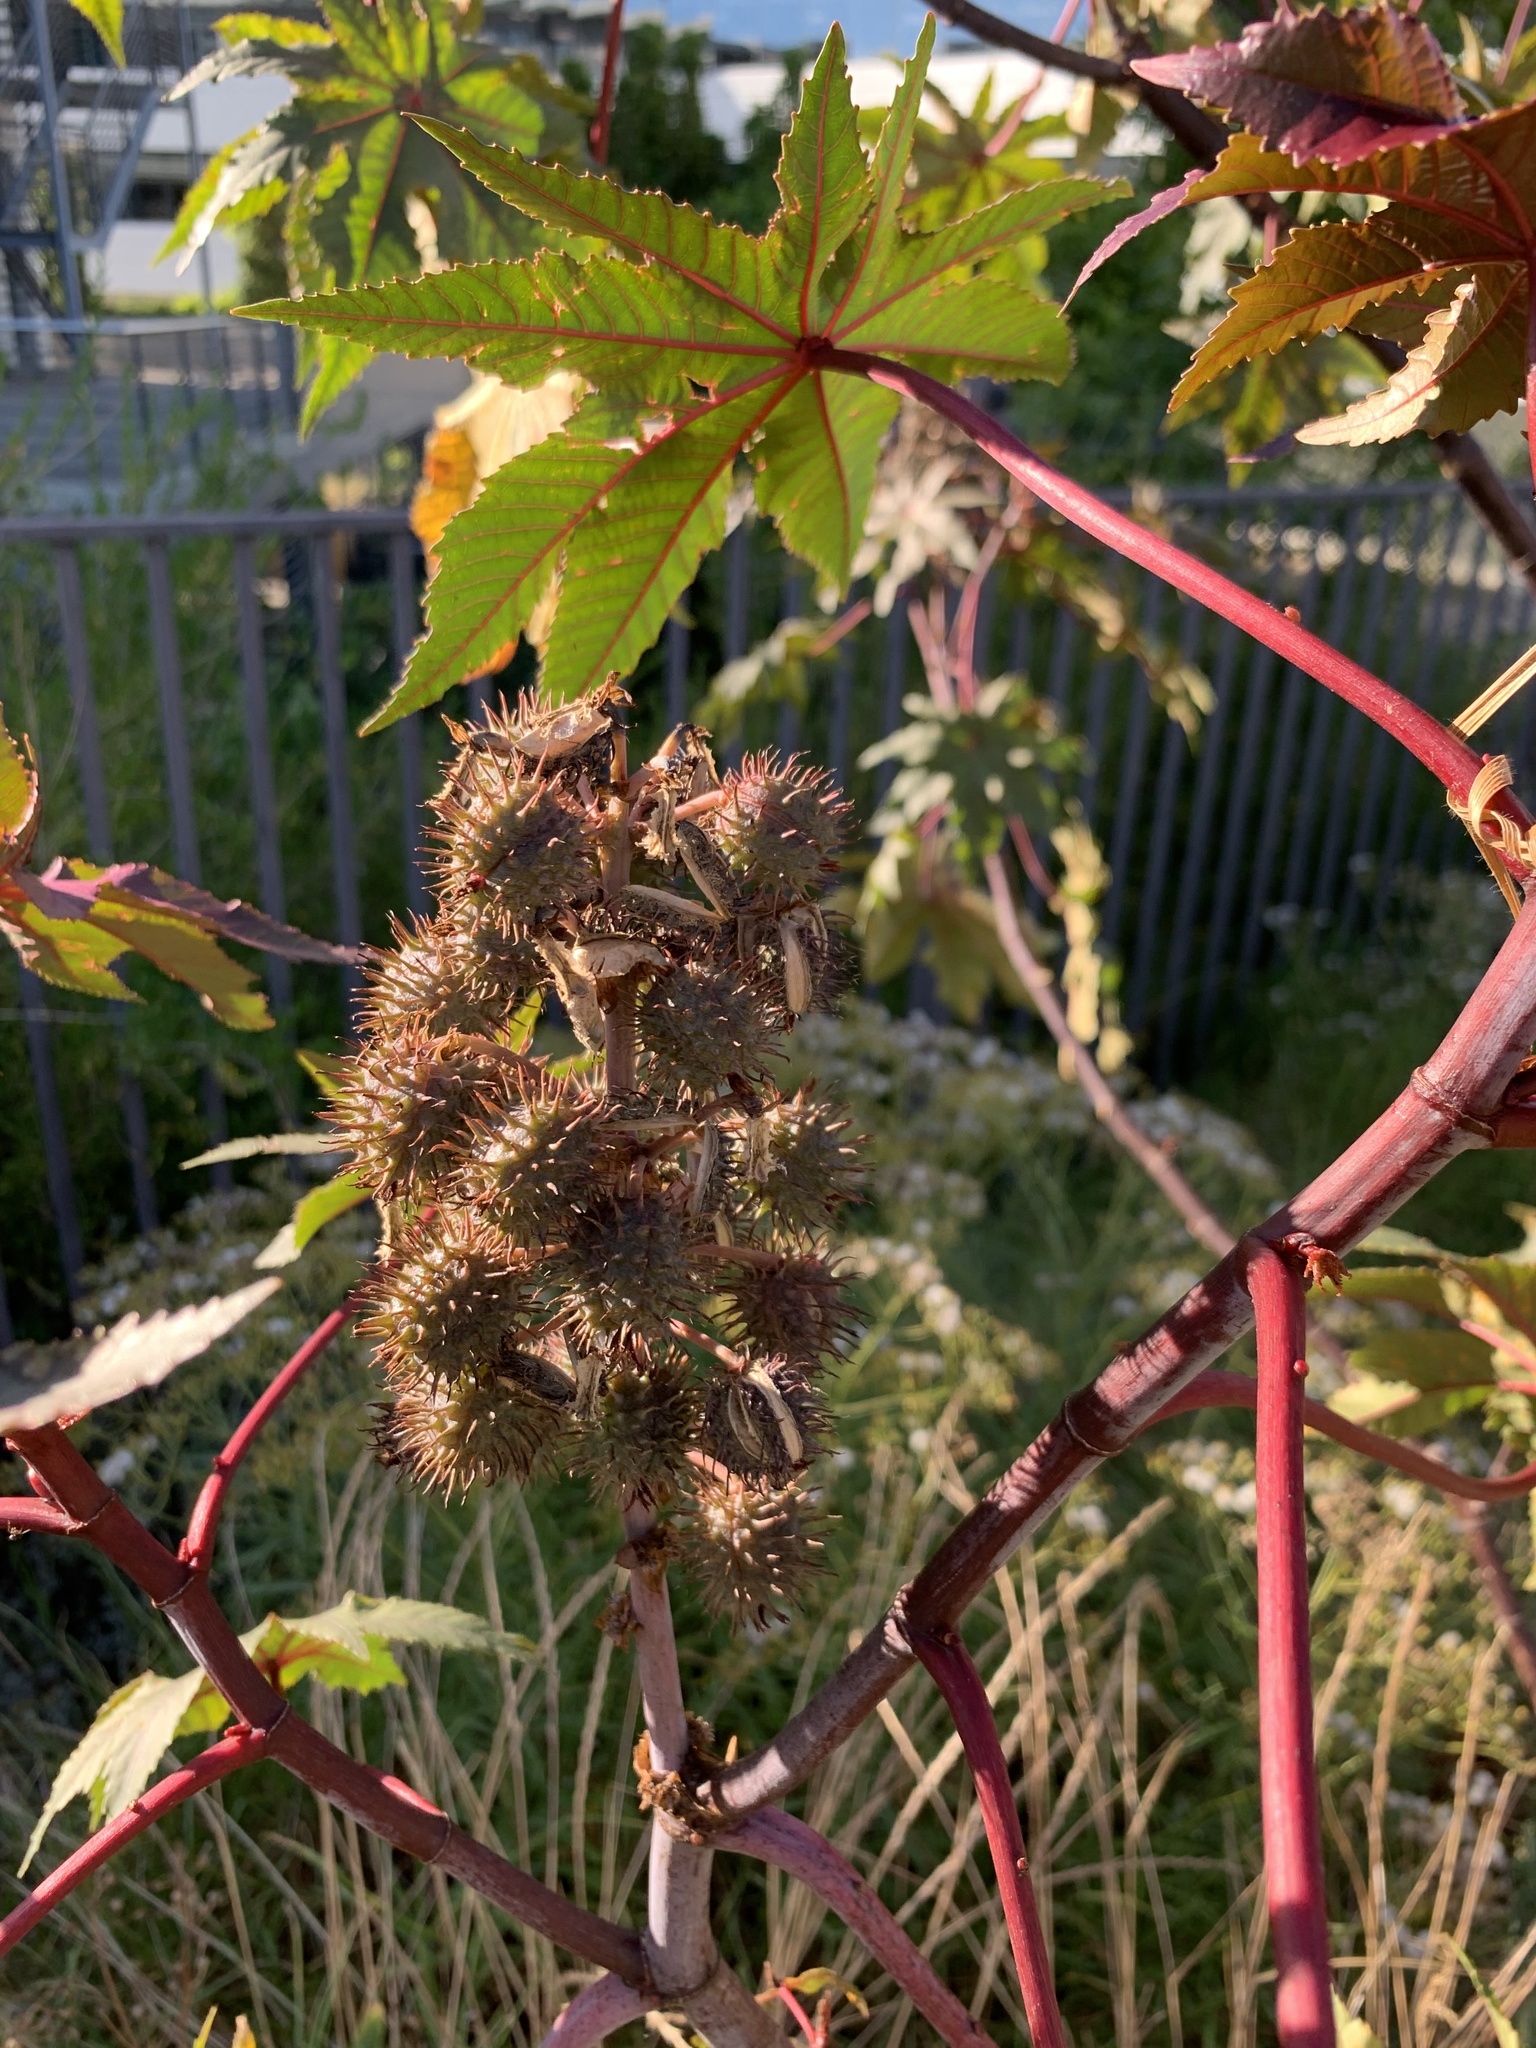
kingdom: Plantae
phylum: Tracheophyta
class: Magnoliopsida
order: Malpighiales
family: Euphorbiaceae
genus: Ricinus
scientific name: Ricinus communis
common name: Castor-oil-plant
